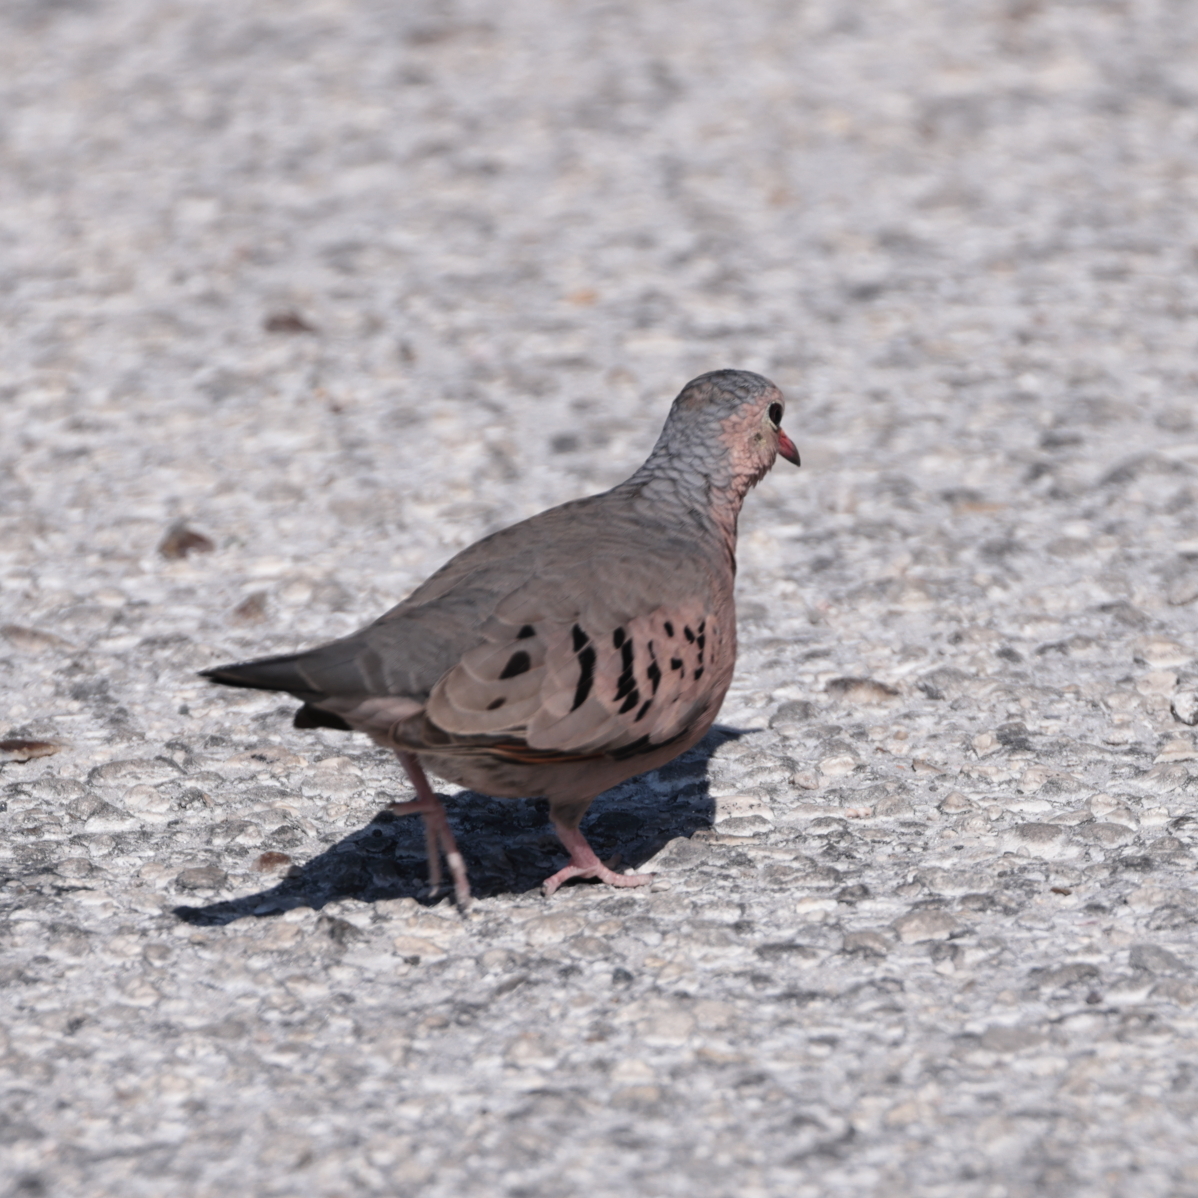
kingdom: Animalia
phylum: Chordata
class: Aves
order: Columbiformes
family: Columbidae
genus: Columbina
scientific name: Columbina passerina
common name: Common ground-dove
